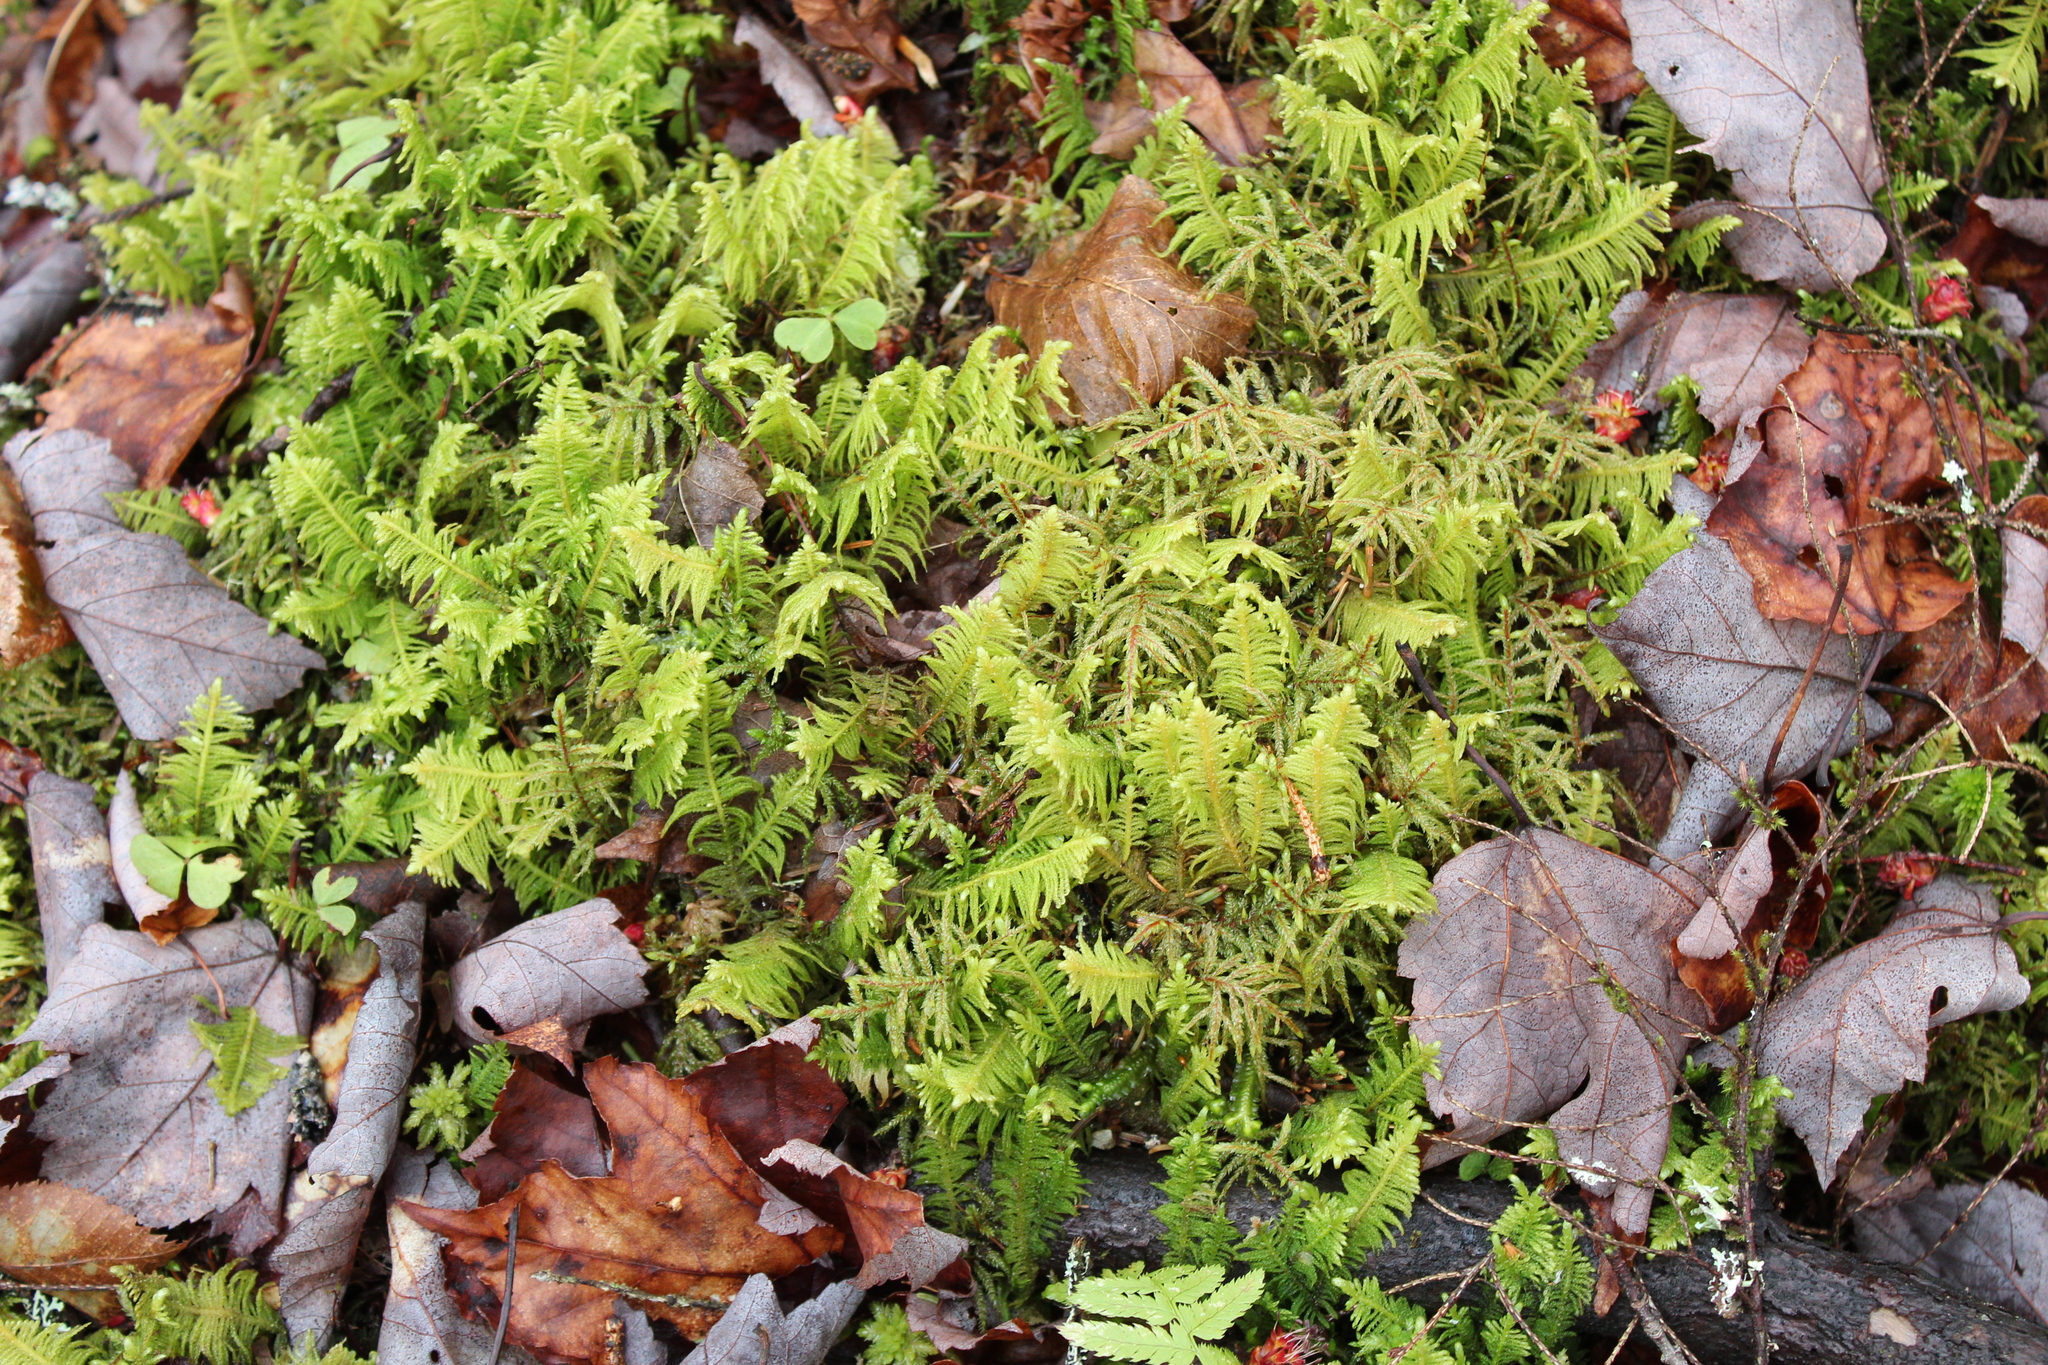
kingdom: Plantae
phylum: Bryophyta
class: Bryopsida
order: Hypnales
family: Pylaisiaceae
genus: Ptilium
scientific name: Ptilium crista-castrensis
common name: Knight's plume moss
